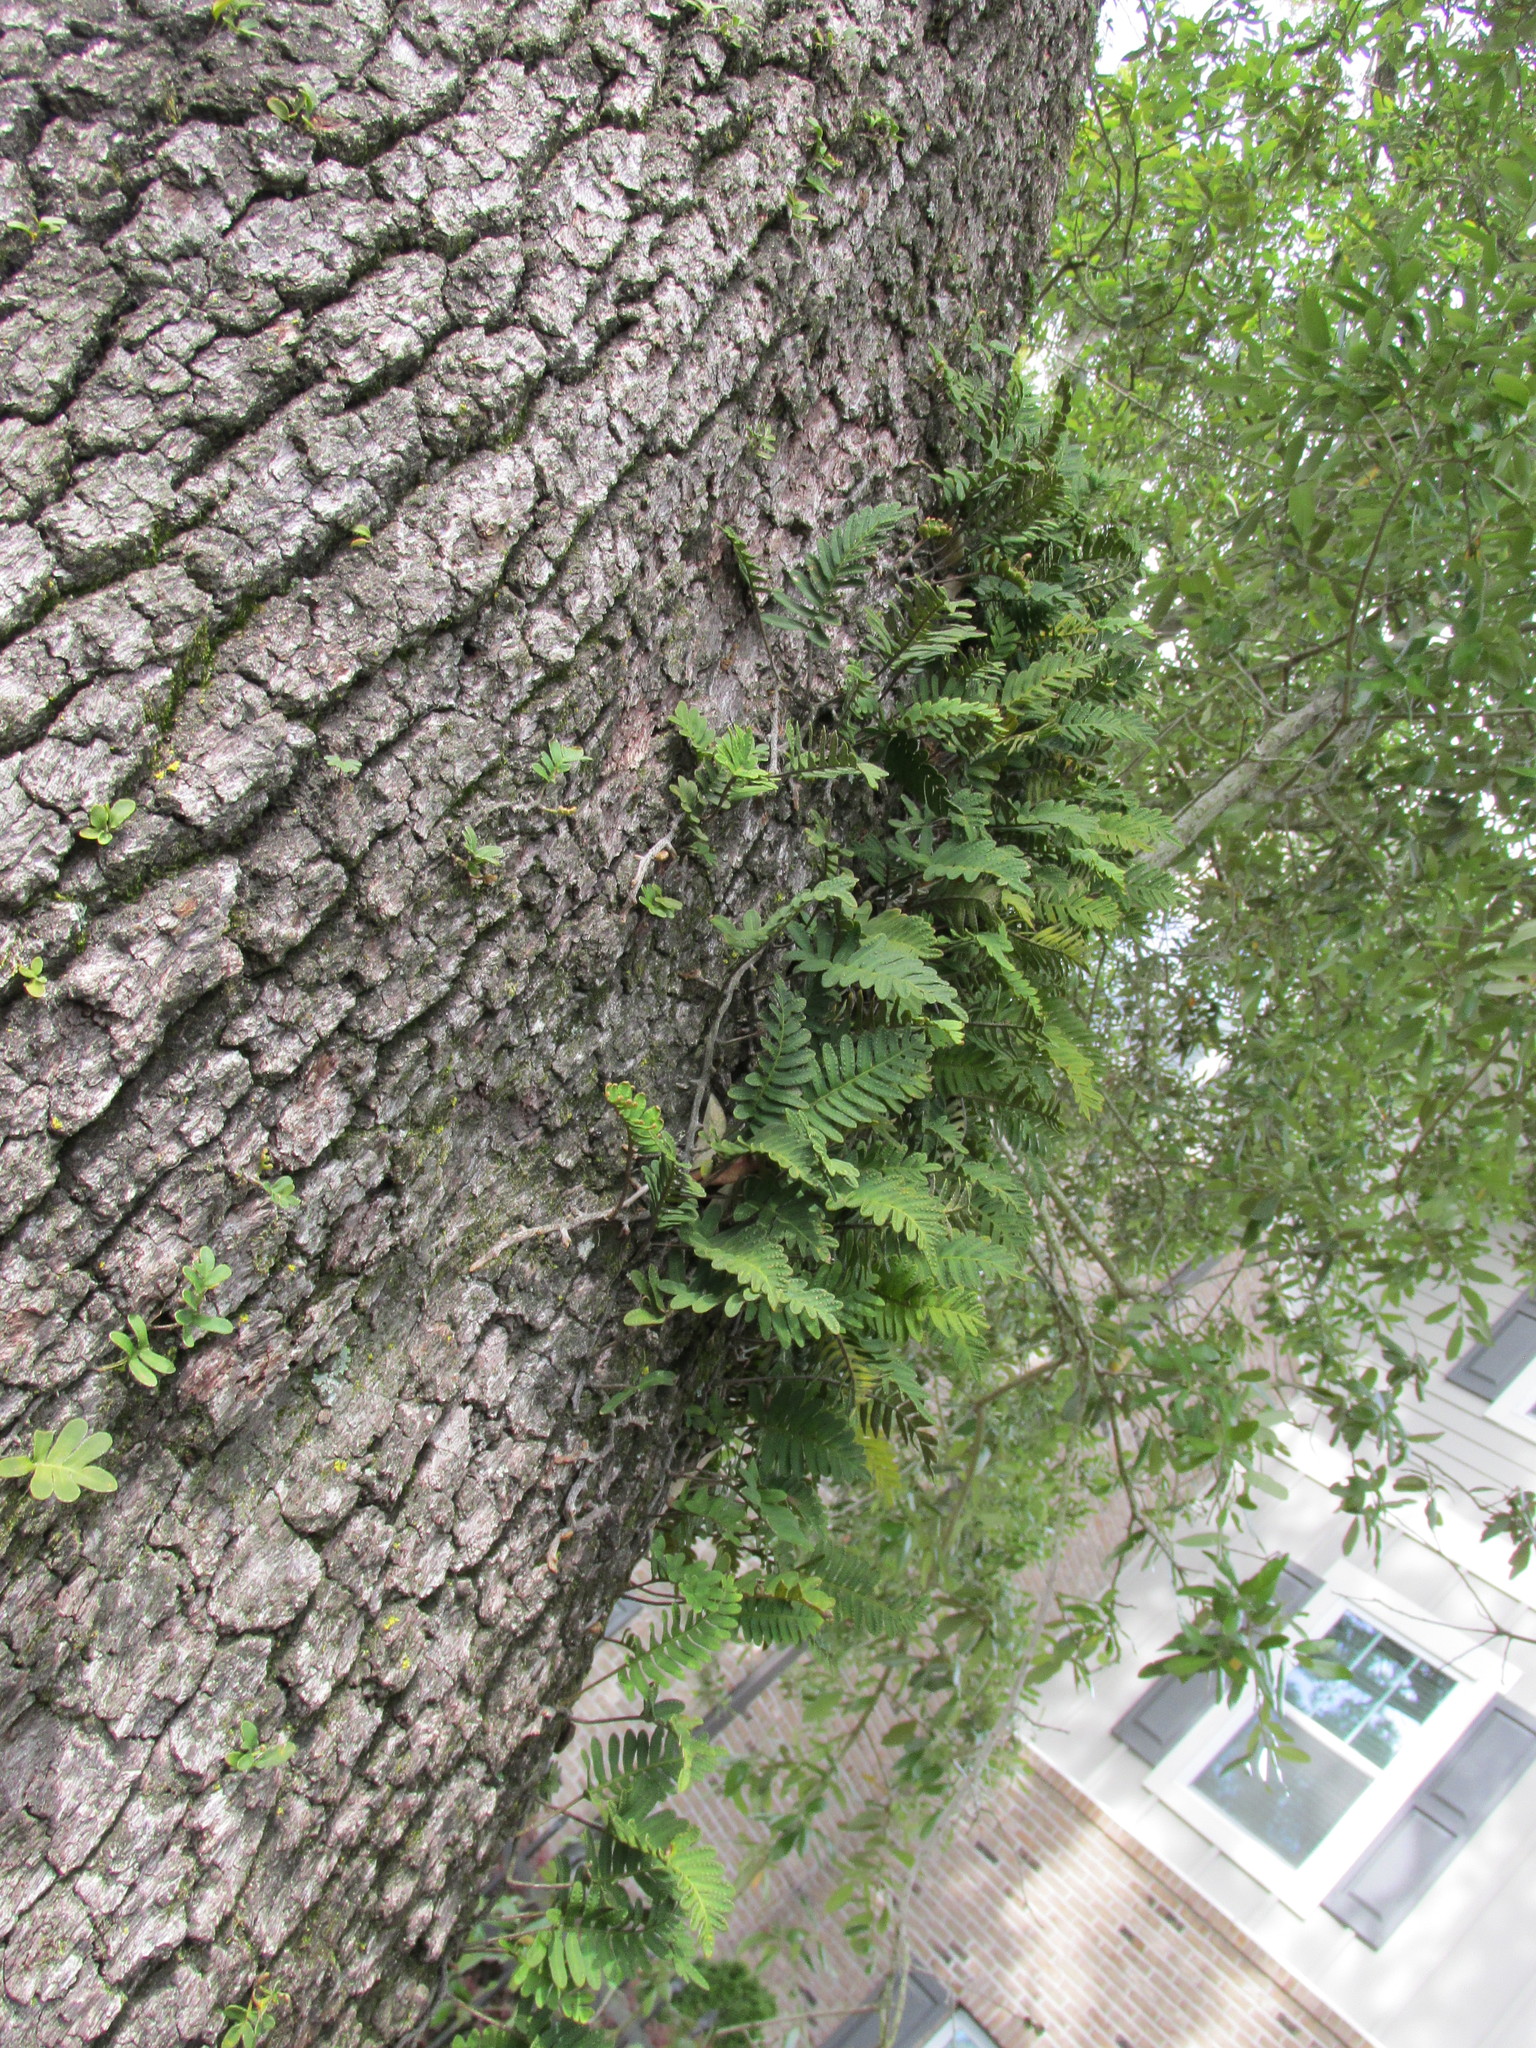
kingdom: Plantae
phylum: Tracheophyta
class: Polypodiopsida
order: Polypodiales
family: Polypodiaceae
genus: Pleopeltis
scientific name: Pleopeltis michauxiana
